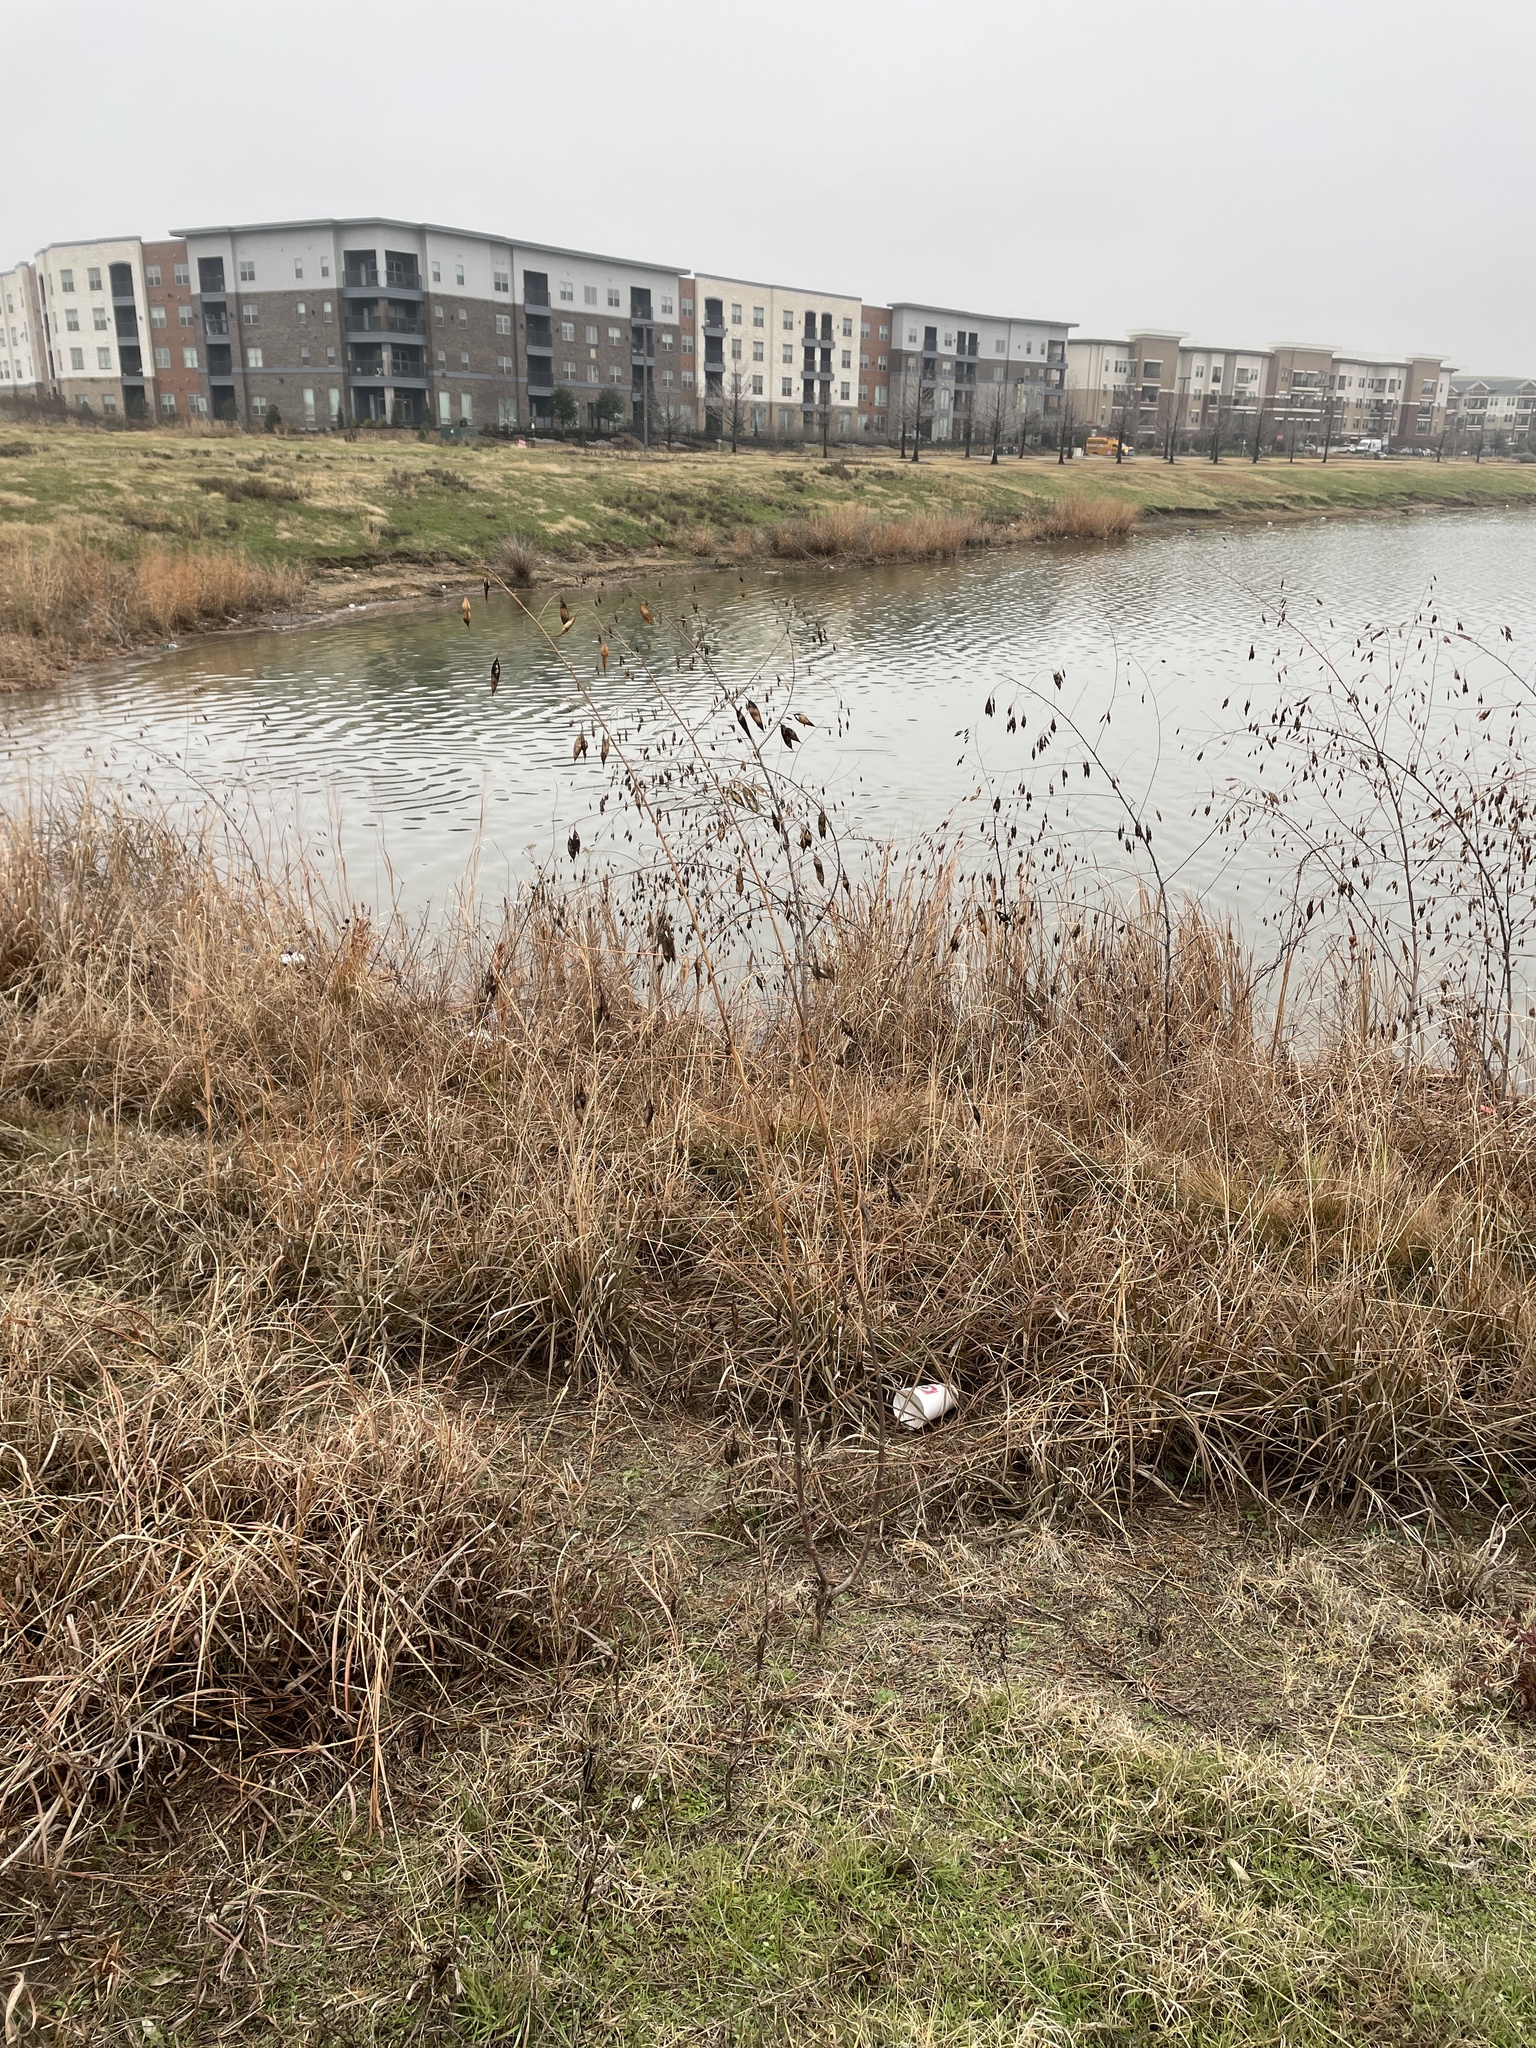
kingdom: Plantae
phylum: Tracheophyta
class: Magnoliopsida
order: Fabales
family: Fabaceae
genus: Sesbania
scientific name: Sesbania vesicaria
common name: Bagpod
